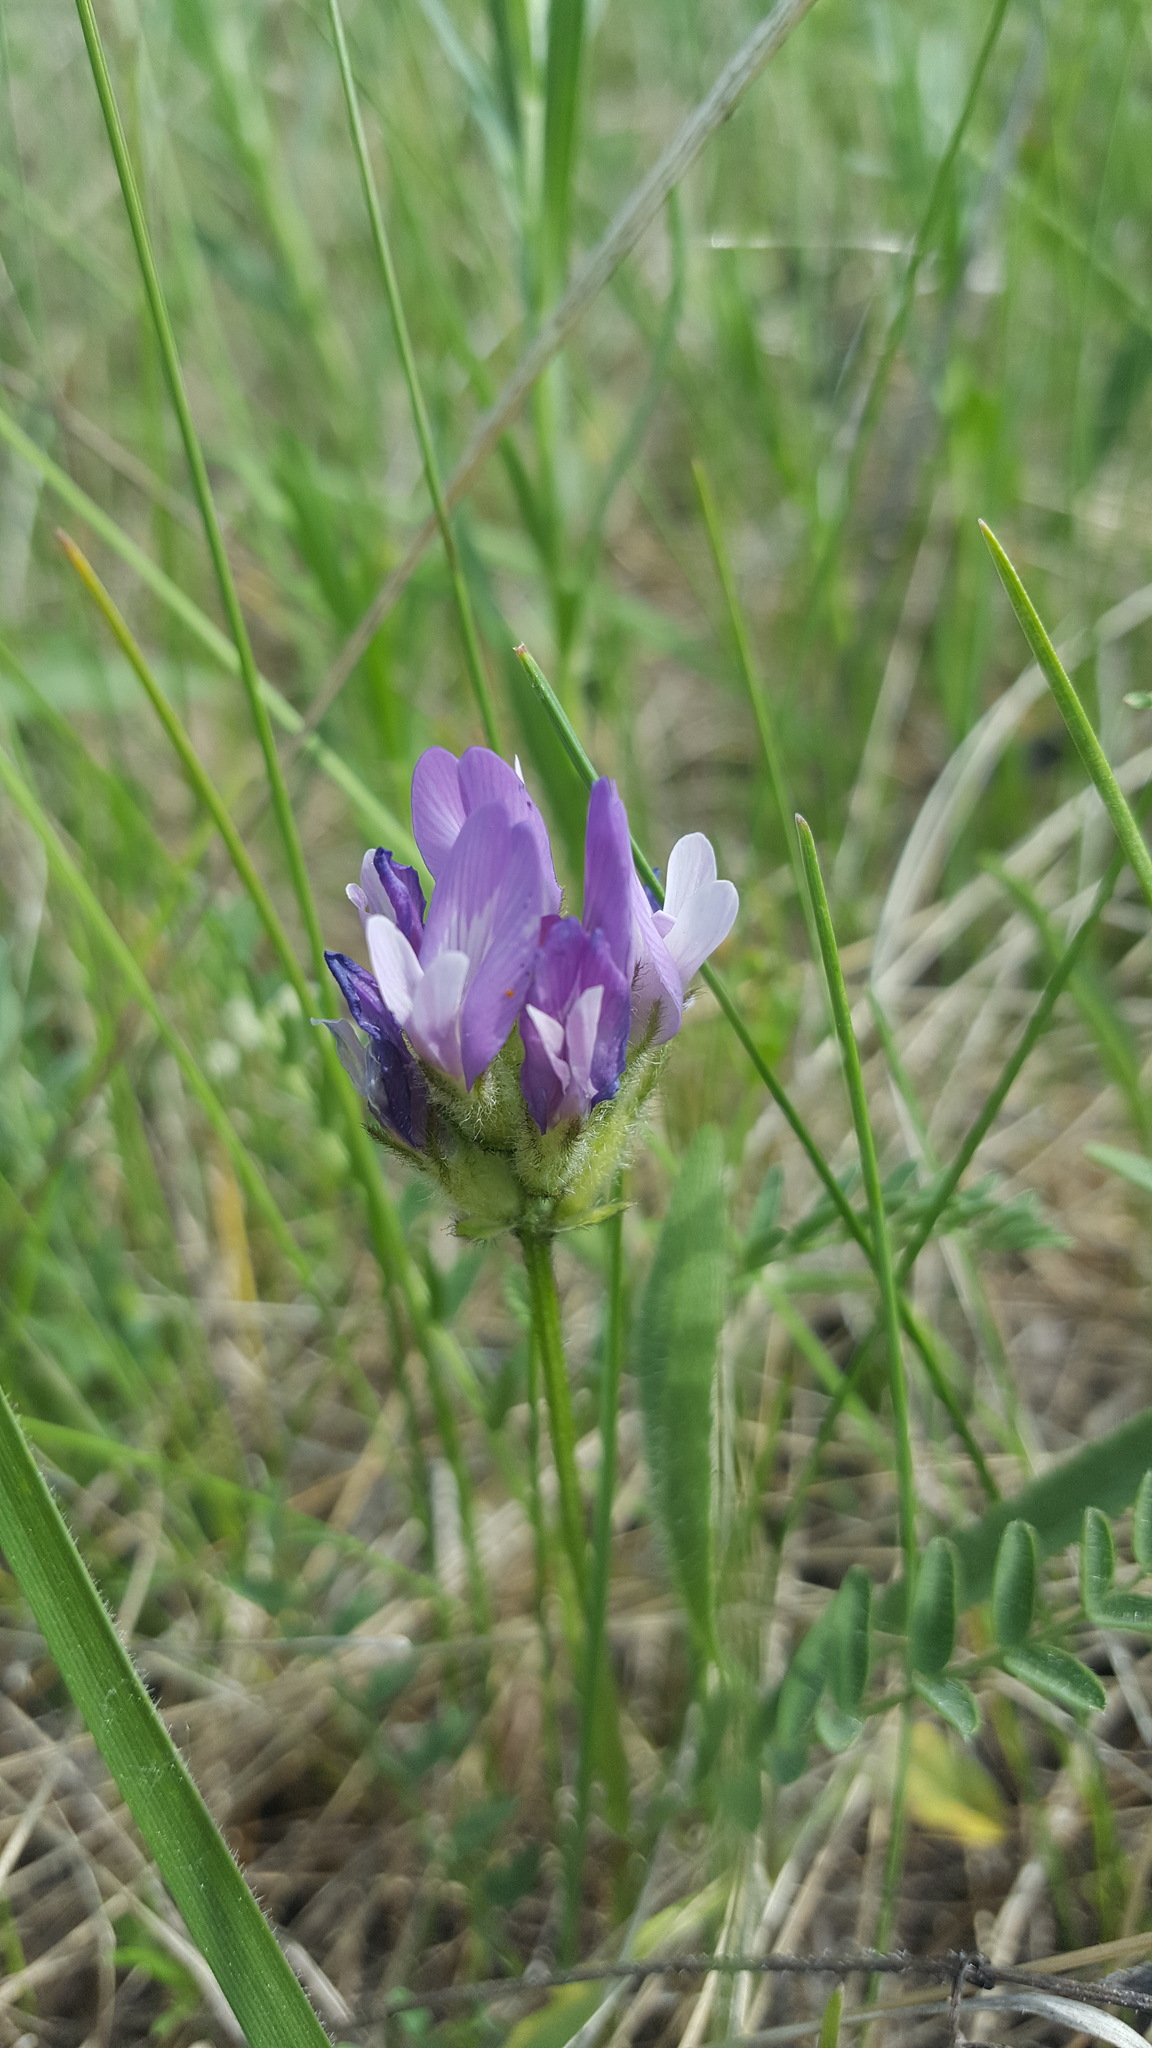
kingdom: Plantae
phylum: Tracheophyta
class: Magnoliopsida
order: Fabales
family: Fabaceae
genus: Astragalus
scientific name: Astragalus agrestis
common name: Field milk-vetch
